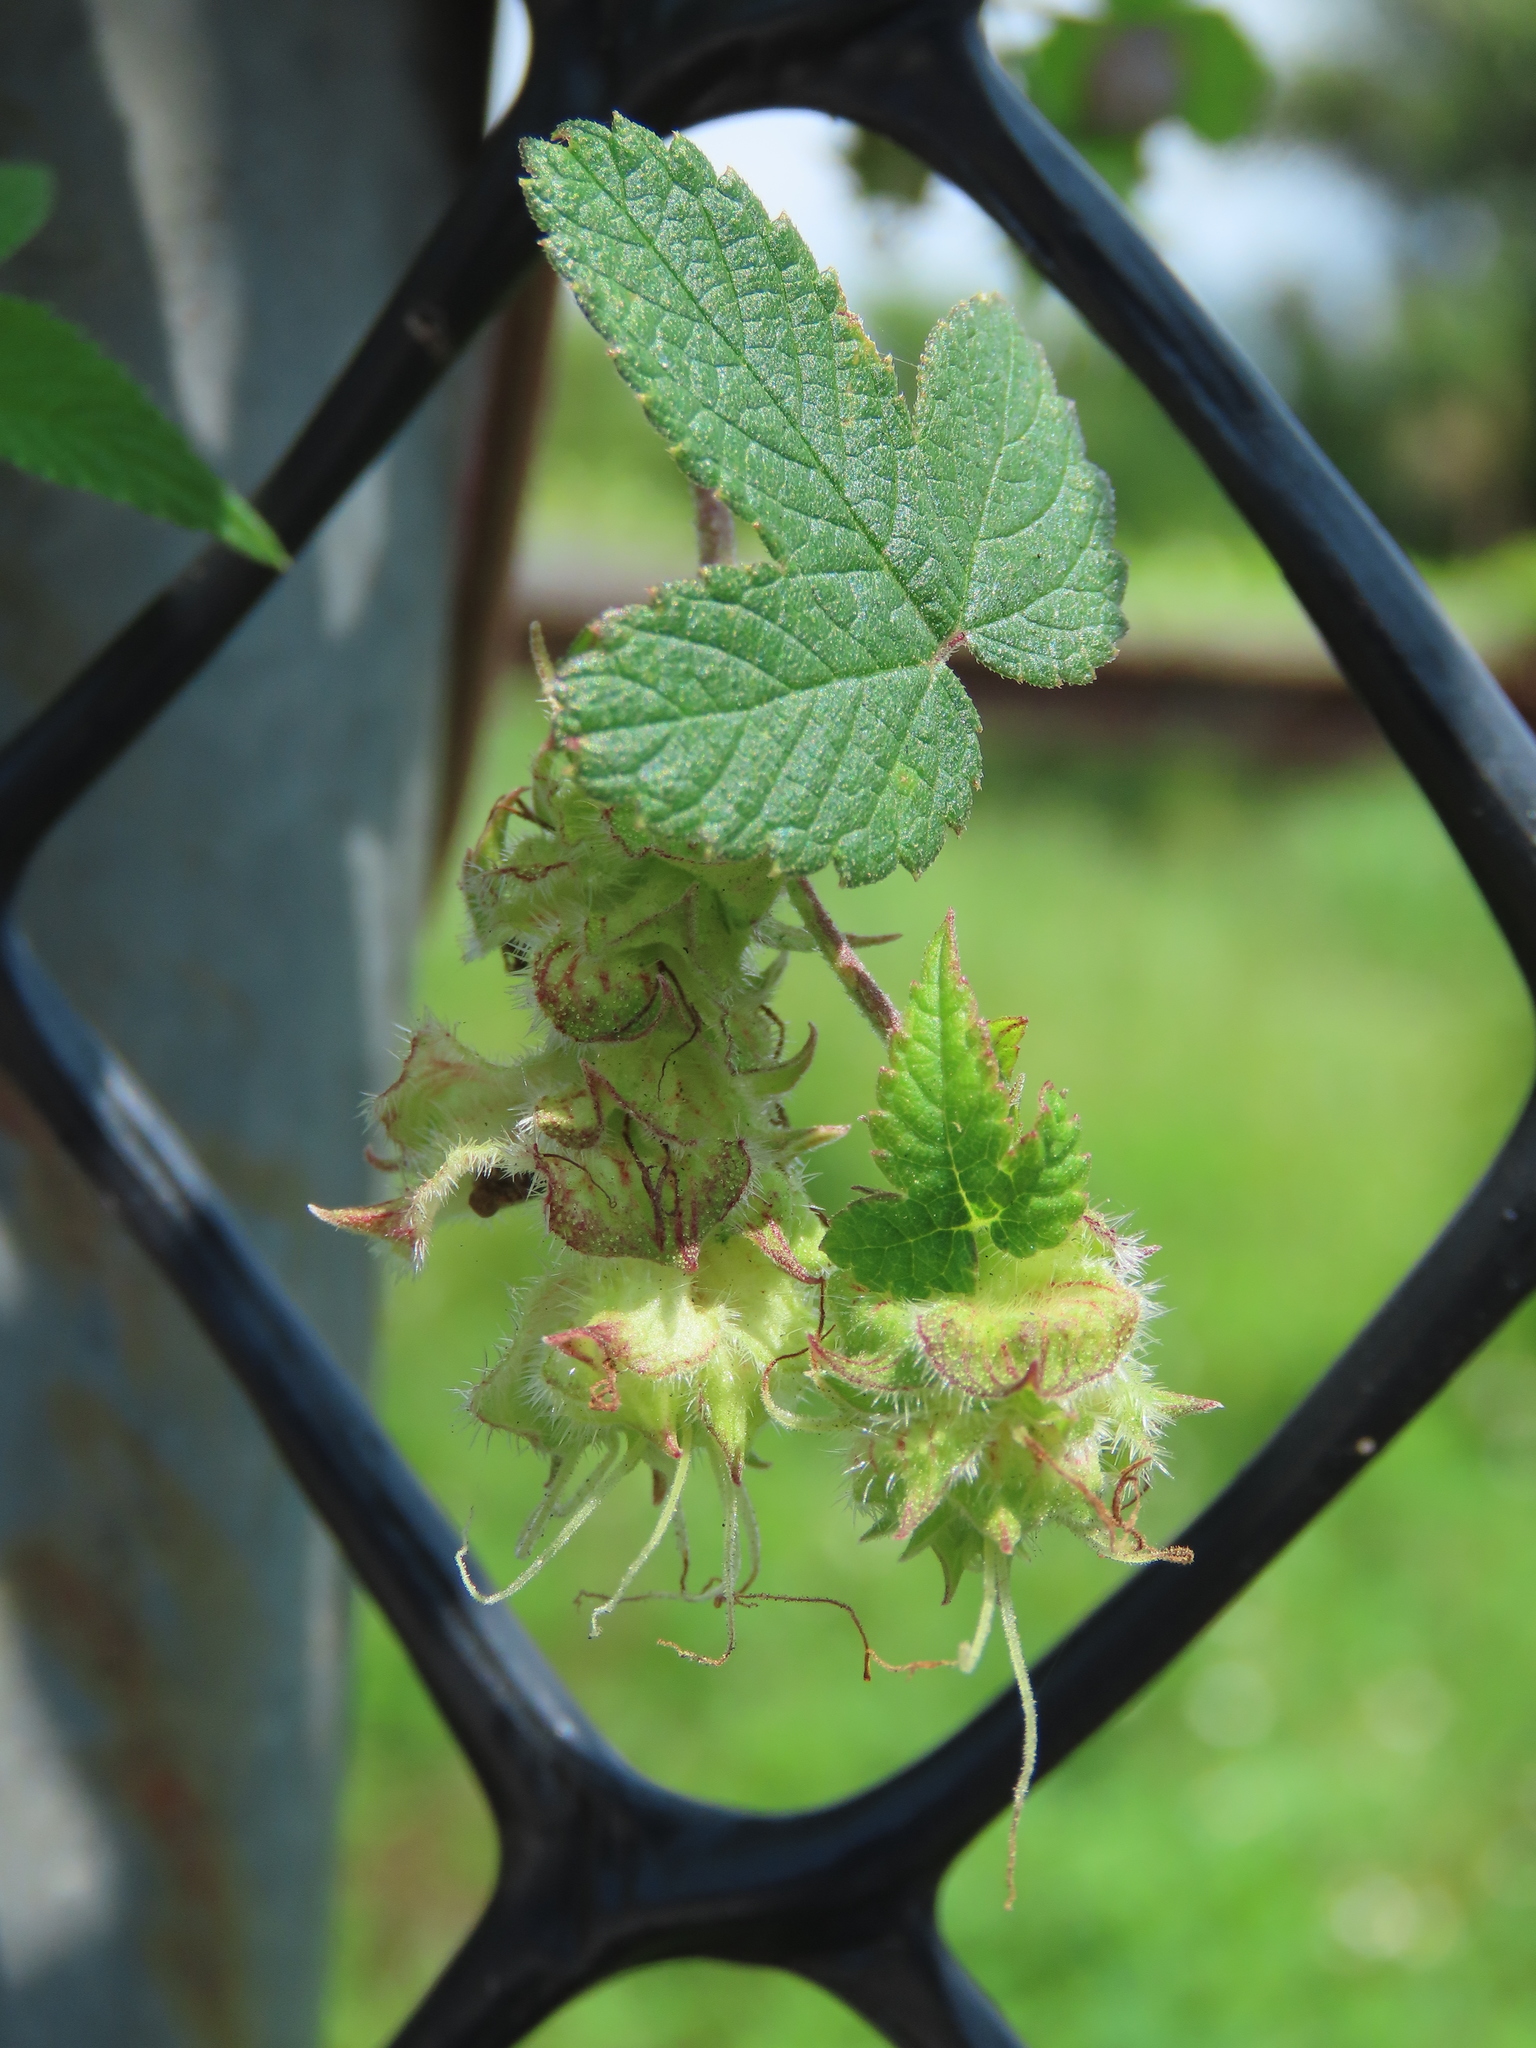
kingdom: Plantae
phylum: Tracheophyta
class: Magnoliopsida
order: Rosales
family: Cannabaceae
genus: Humulus
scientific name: Humulus scandens
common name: Japanese hop
